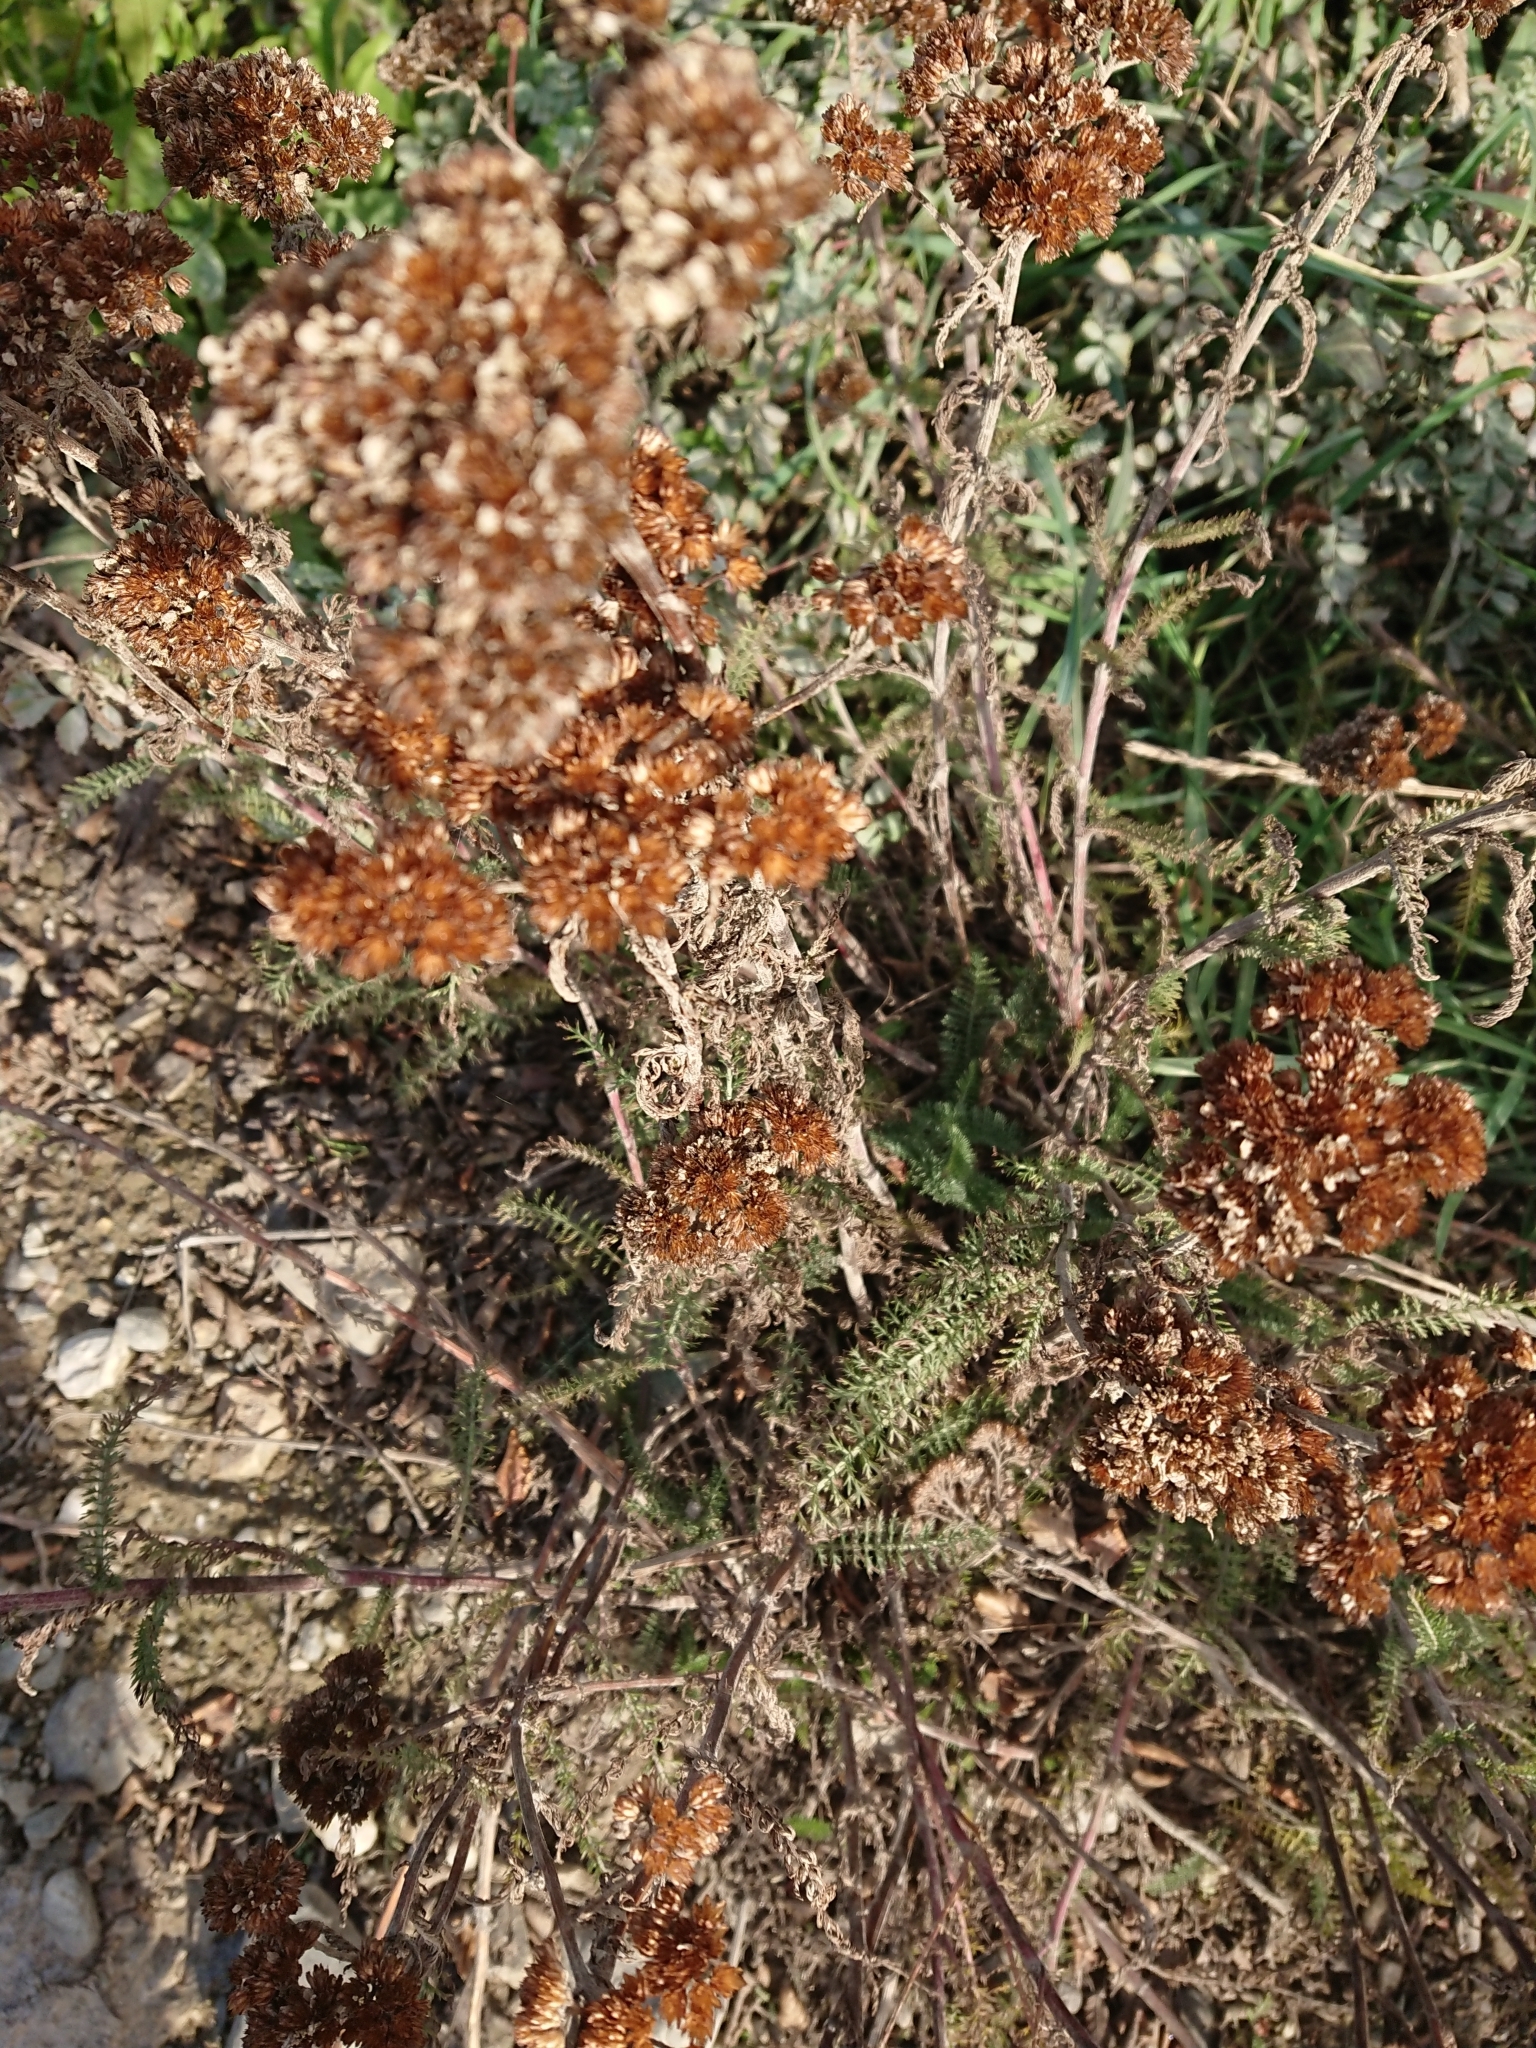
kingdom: Plantae
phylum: Tracheophyta
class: Magnoliopsida
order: Asterales
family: Asteraceae
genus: Achillea
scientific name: Achillea millefolium
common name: Yarrow
